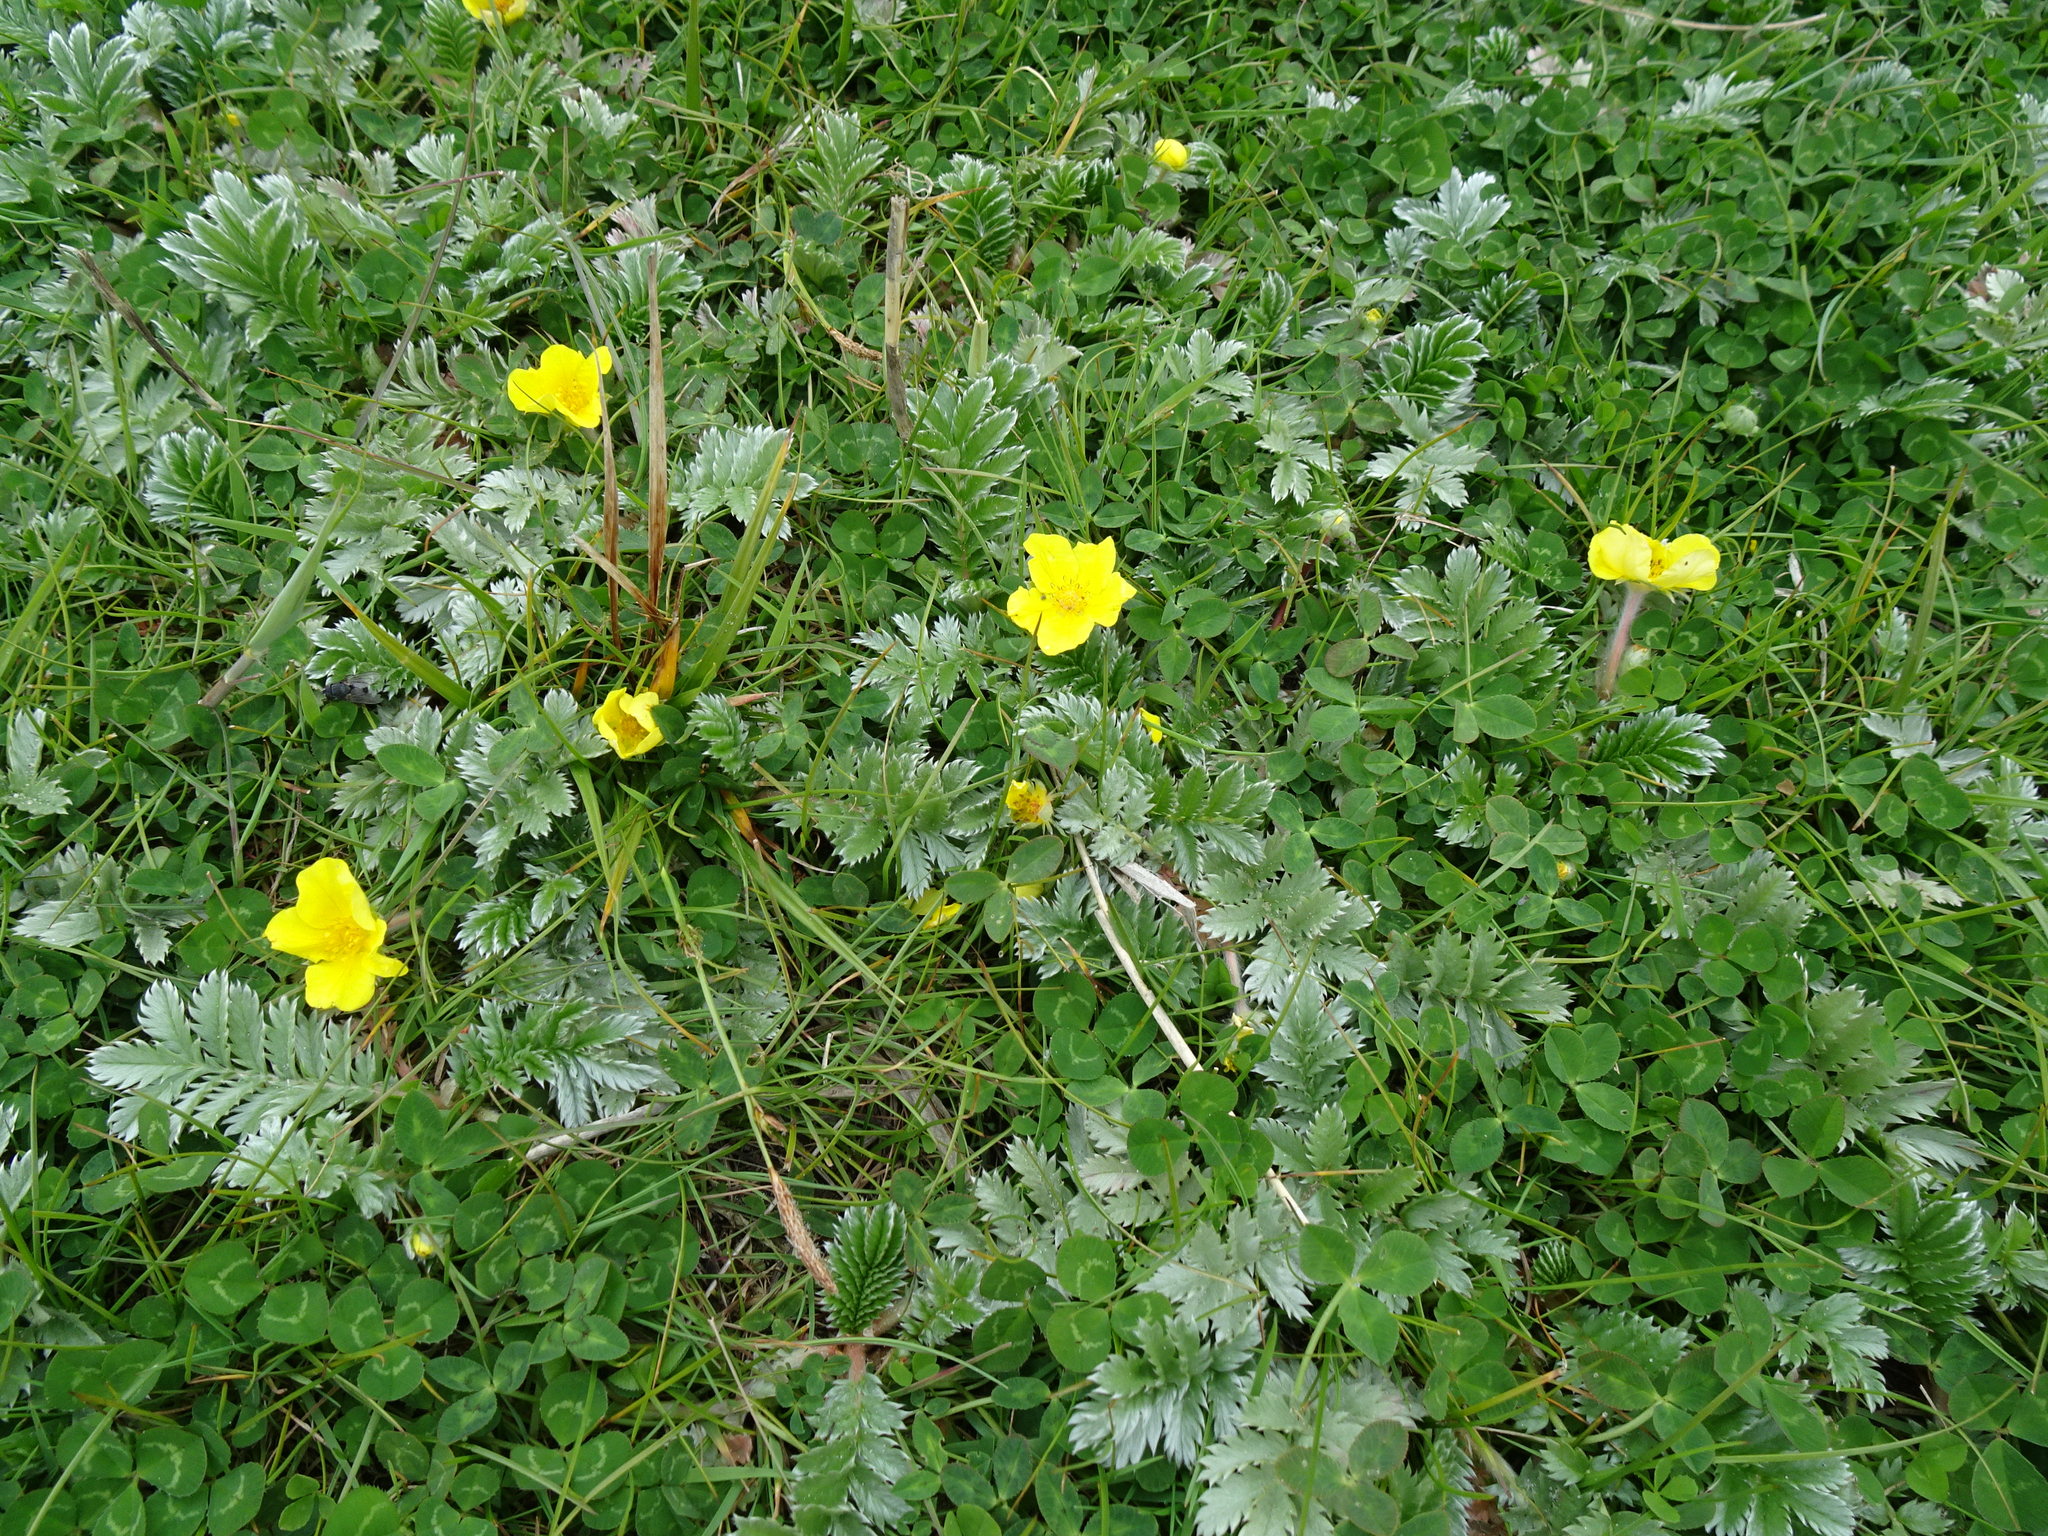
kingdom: Plantae
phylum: Tracheophyta
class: Magnoliopsida
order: Rosales
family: Rosaceae
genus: Argentina
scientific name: Argentina anserina
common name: Common silverweed
